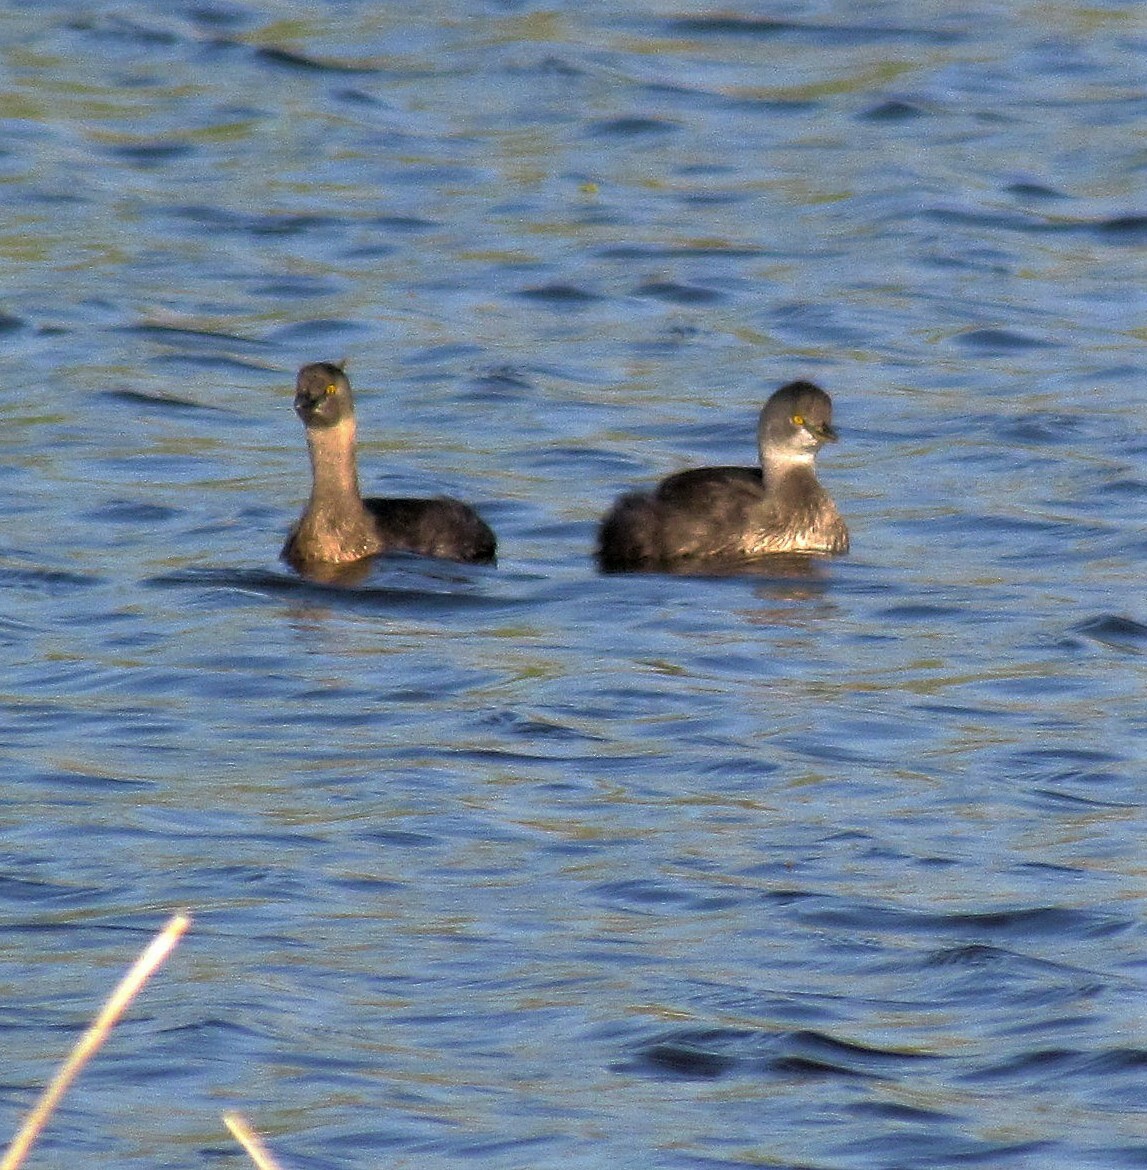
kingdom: Animalia
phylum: Chordata
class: Aves
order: Podicipediformes
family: Podicipedidae
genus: Tachybaptus
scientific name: Tachybaptus dominicus
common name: Least grebe
